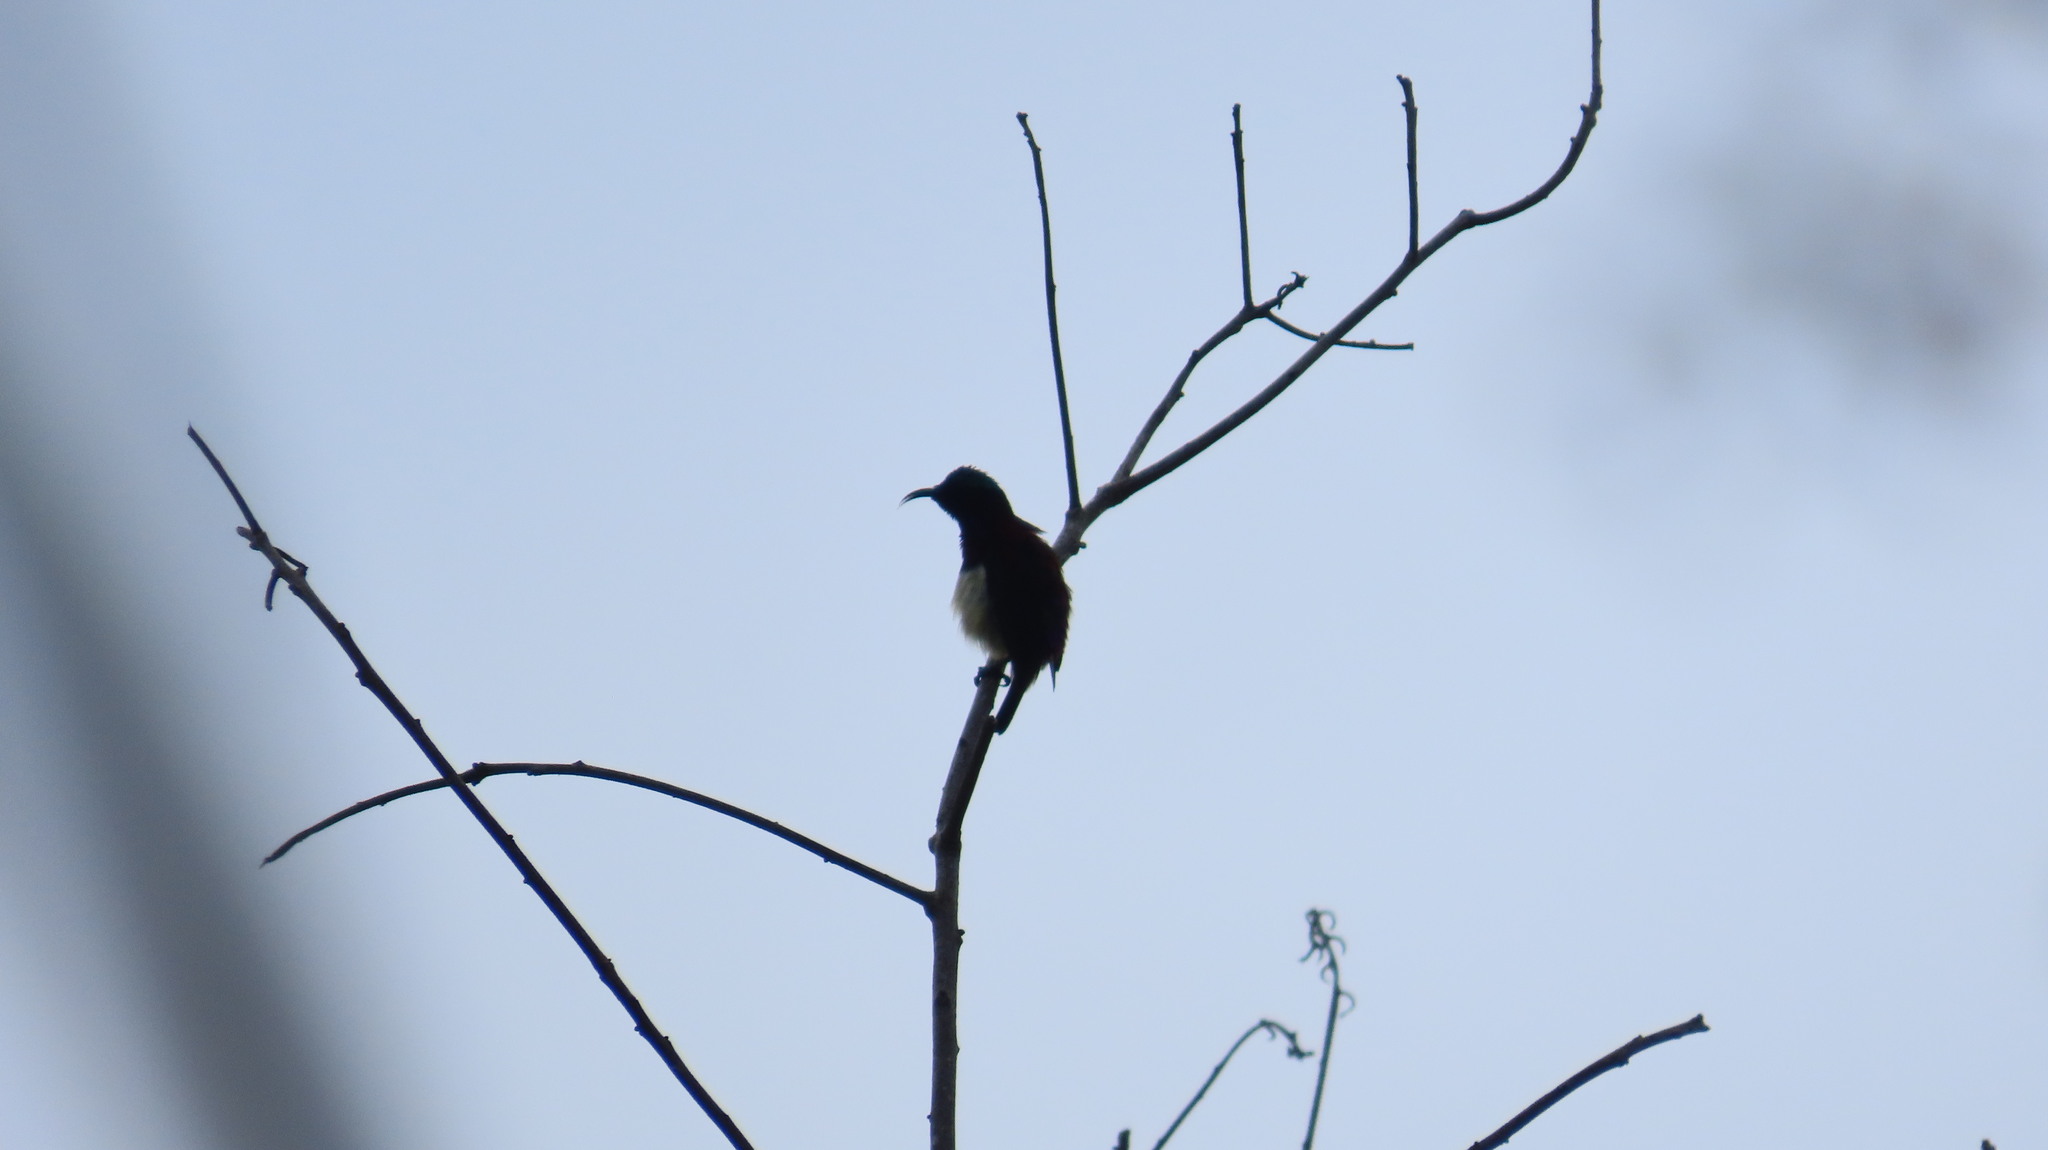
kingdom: Animalia
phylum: Chordata
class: Aves
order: Passeriformes
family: Nectariniidae
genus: Leptocoma
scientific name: Leptocoma minima
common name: Crimson-backed sunbird
